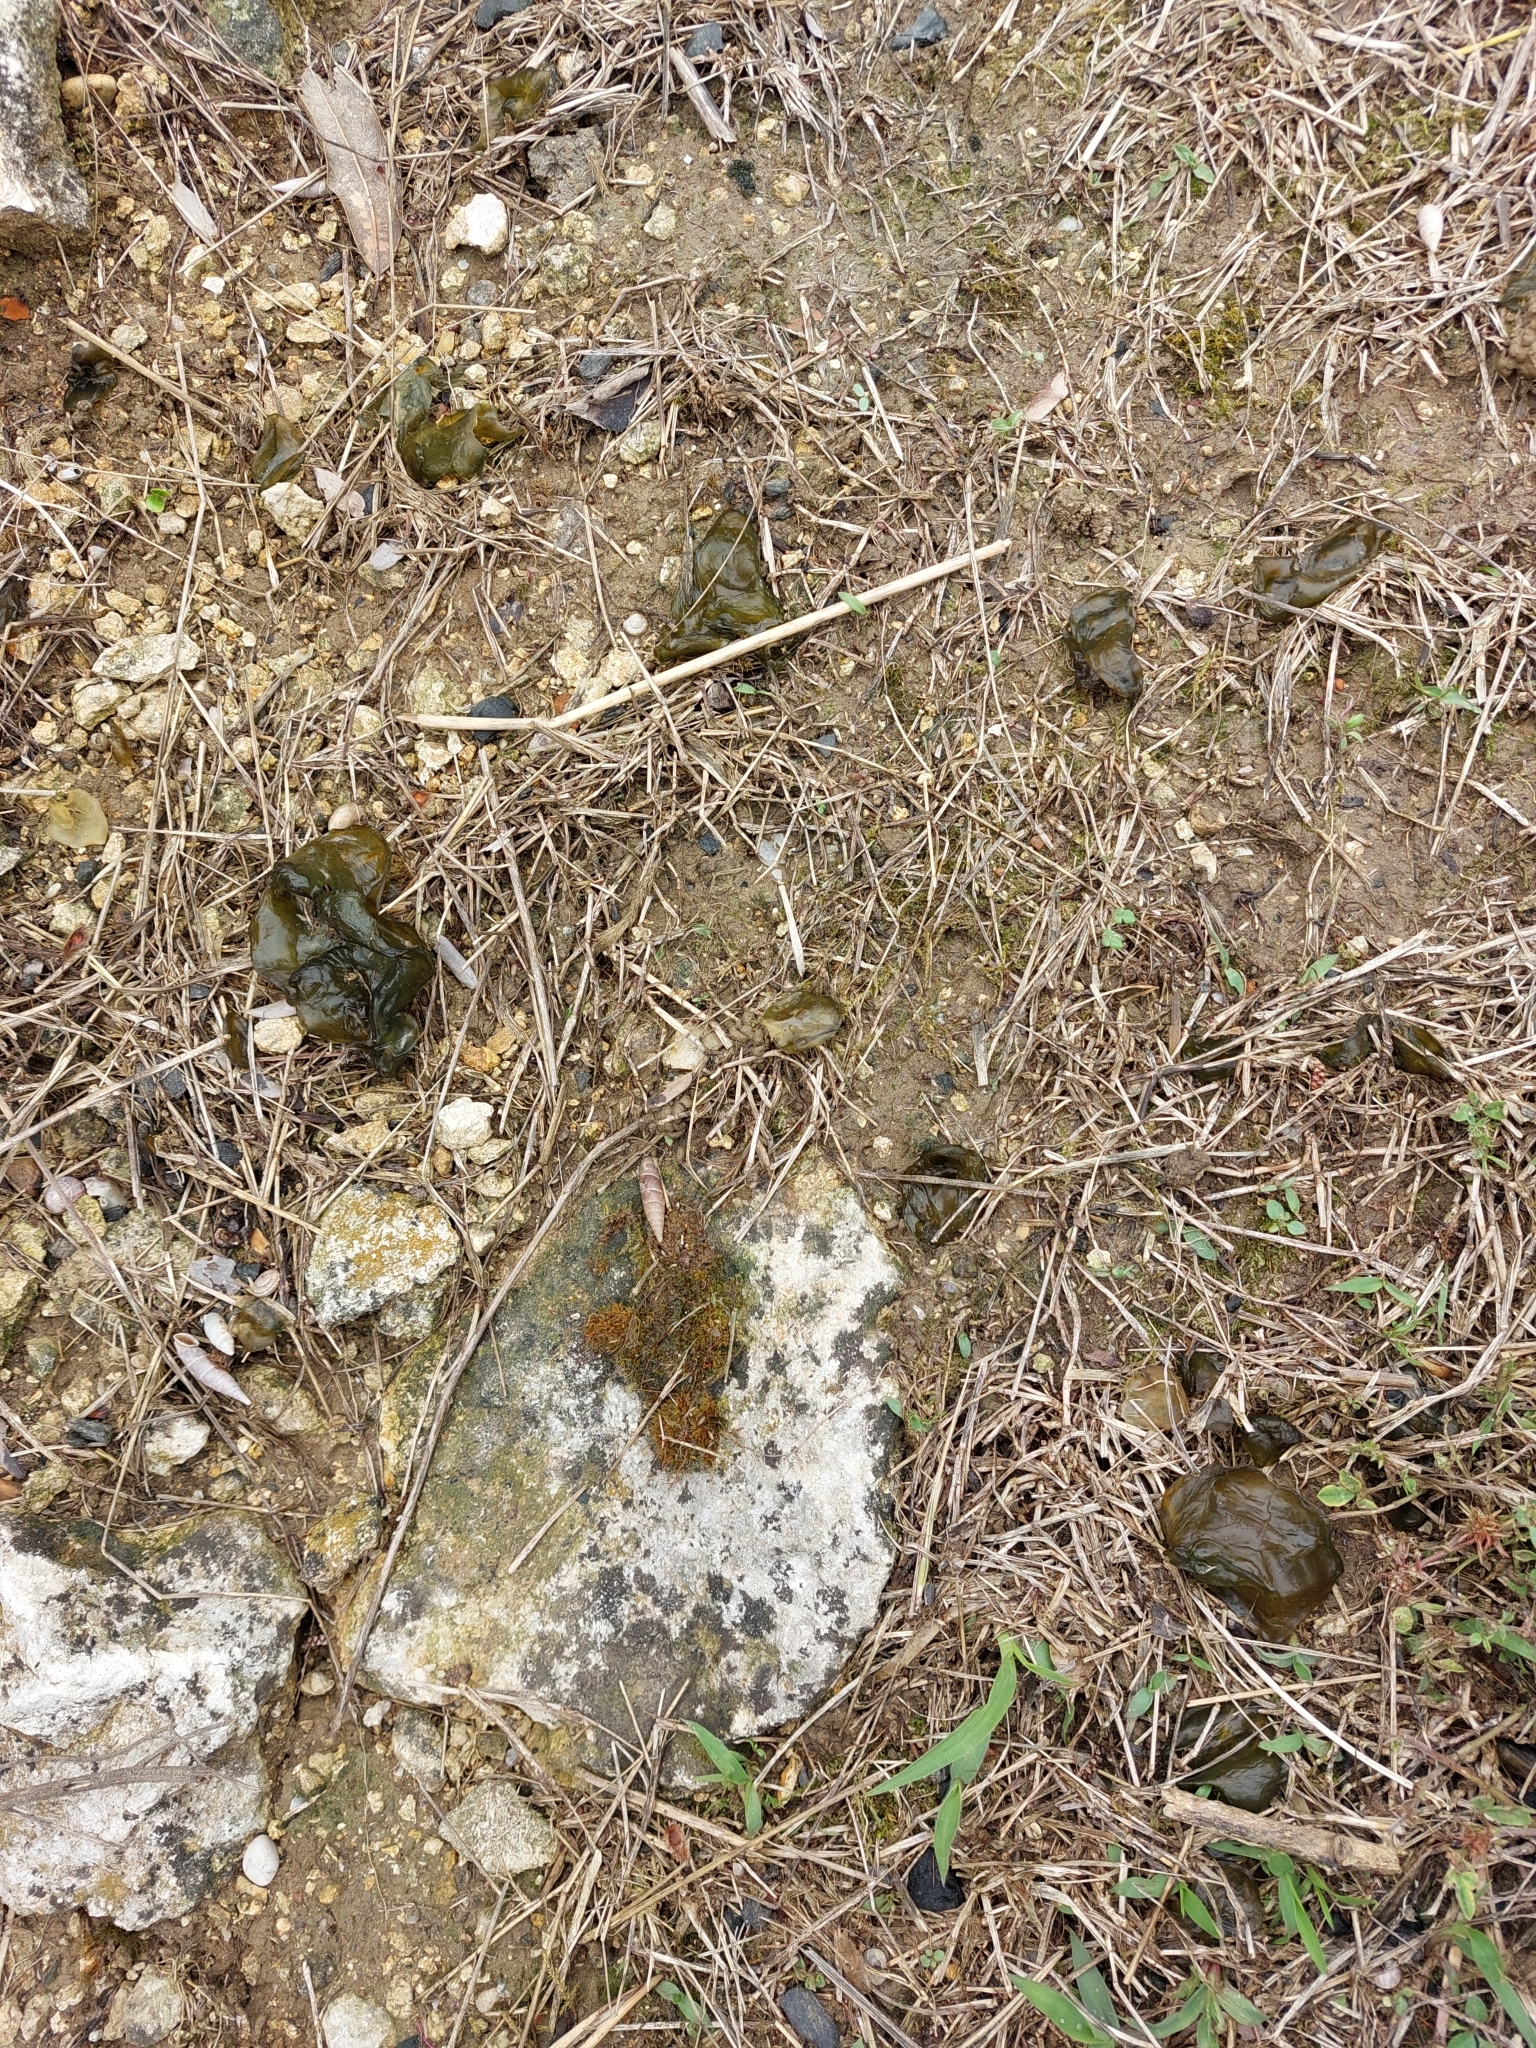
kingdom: Bacteria
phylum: Cyanobacteria
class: Cyanobacteriia
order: Cyanobacteriales
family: Nostocaceae
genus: Nostoc
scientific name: Nostoc commune
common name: Star jelly
